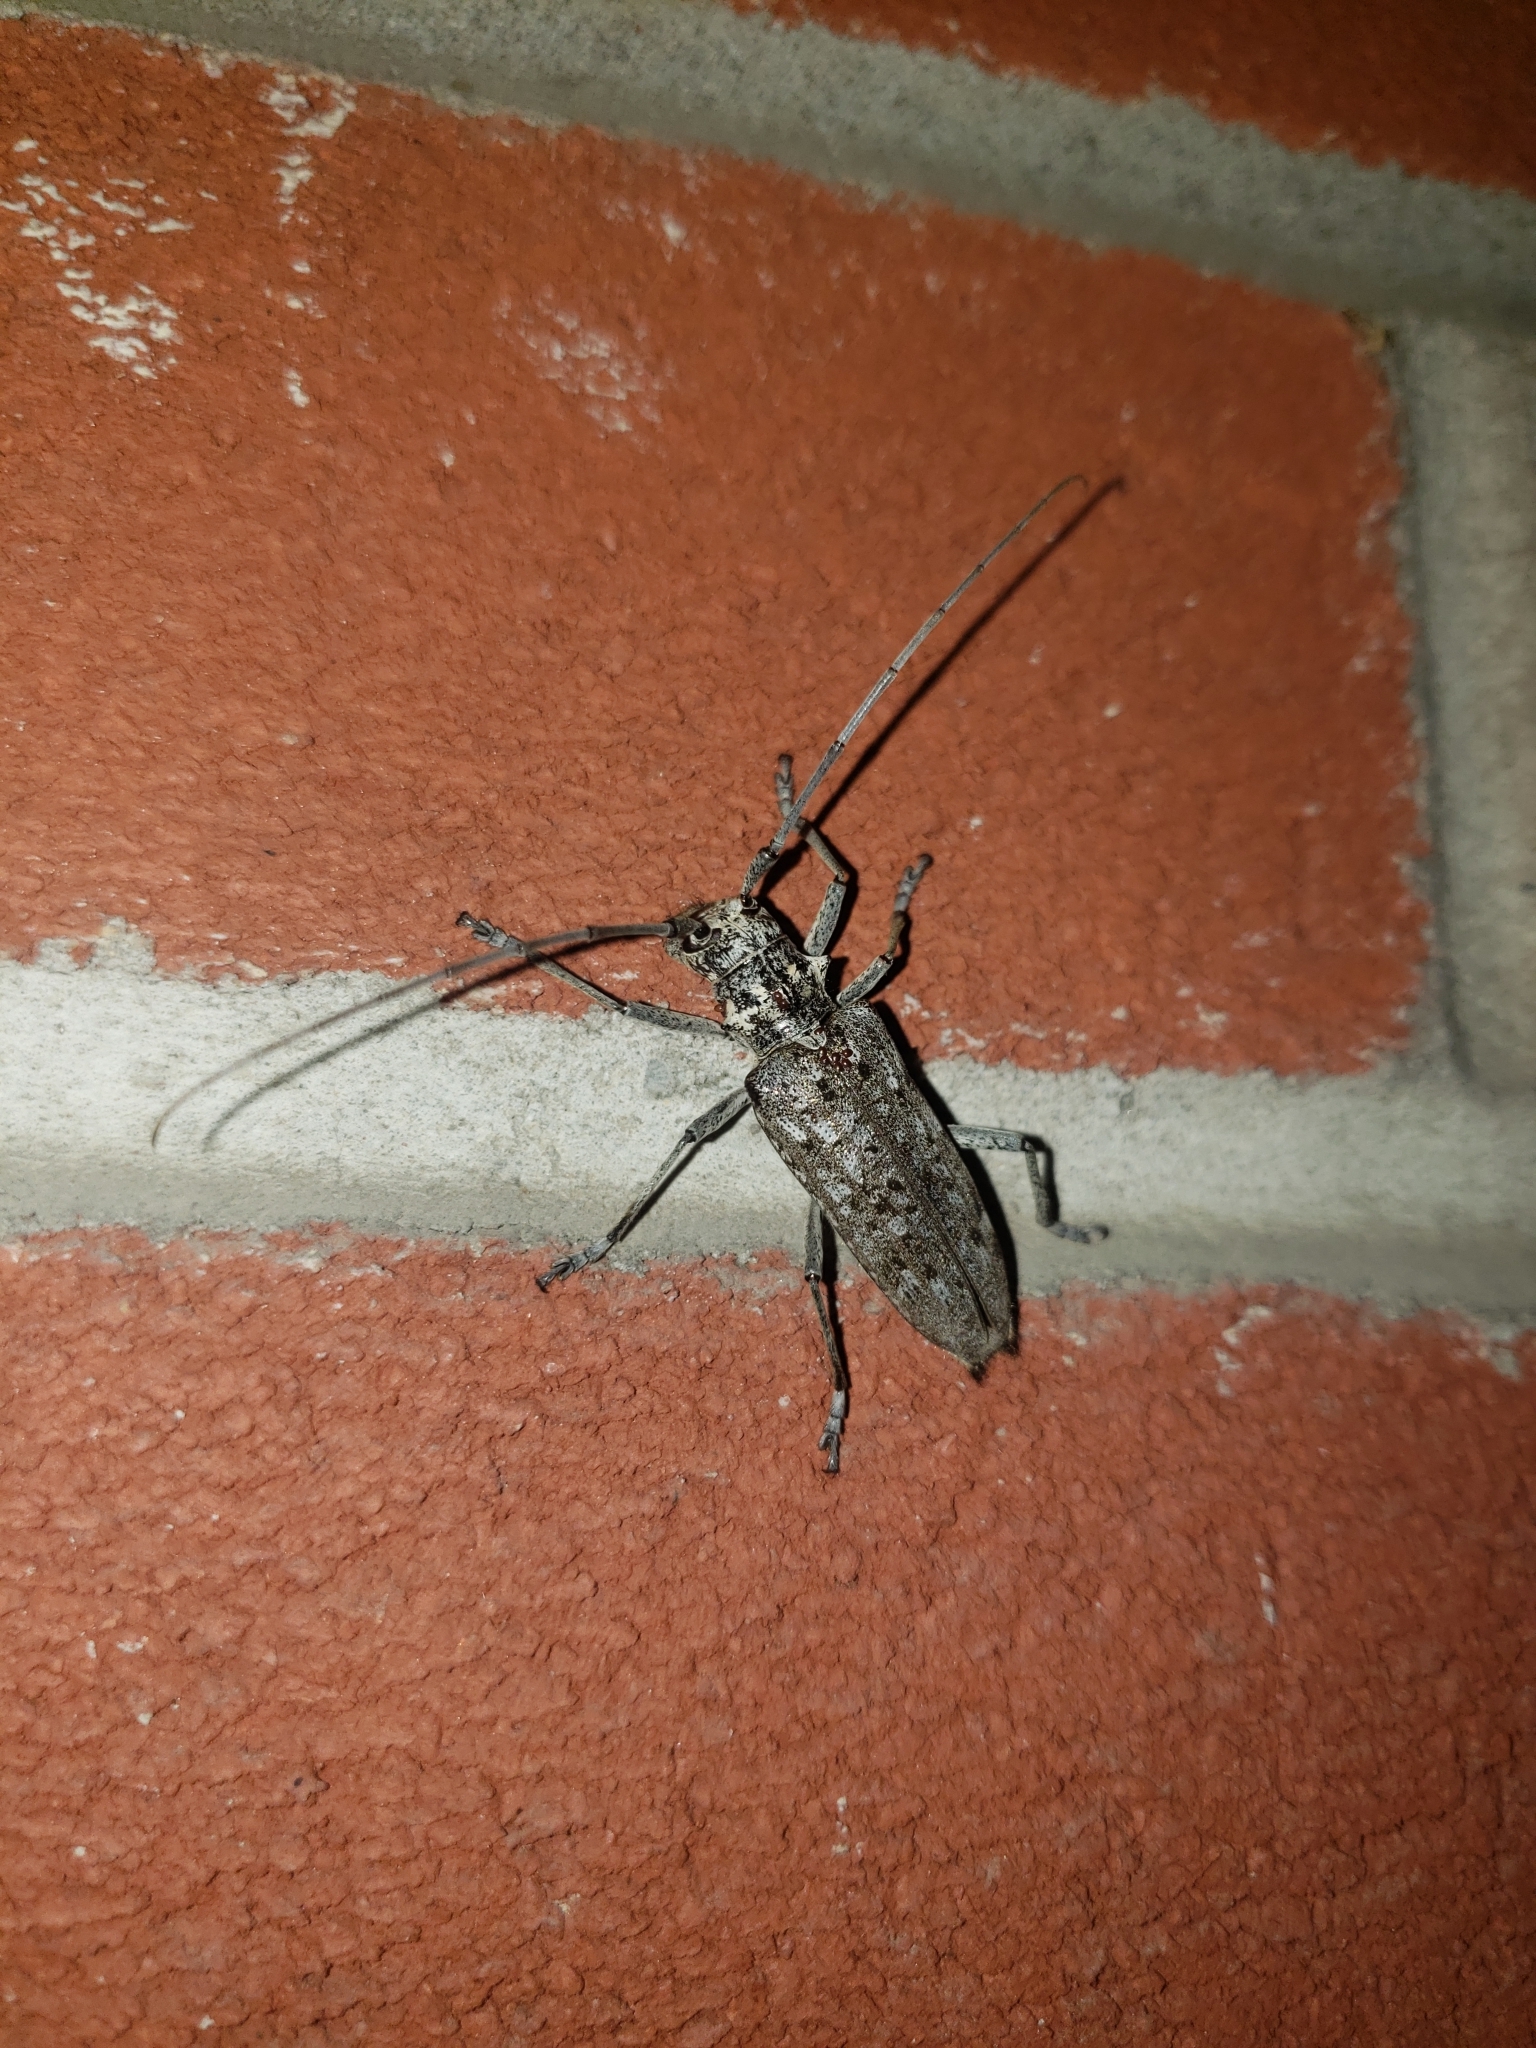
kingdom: Animalia
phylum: Arthropoda
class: Insecta
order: Coleoptera
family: Cerambycidae
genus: Monochamus
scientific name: Monochamus notatus
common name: Northeastern pine sawyer beetle
